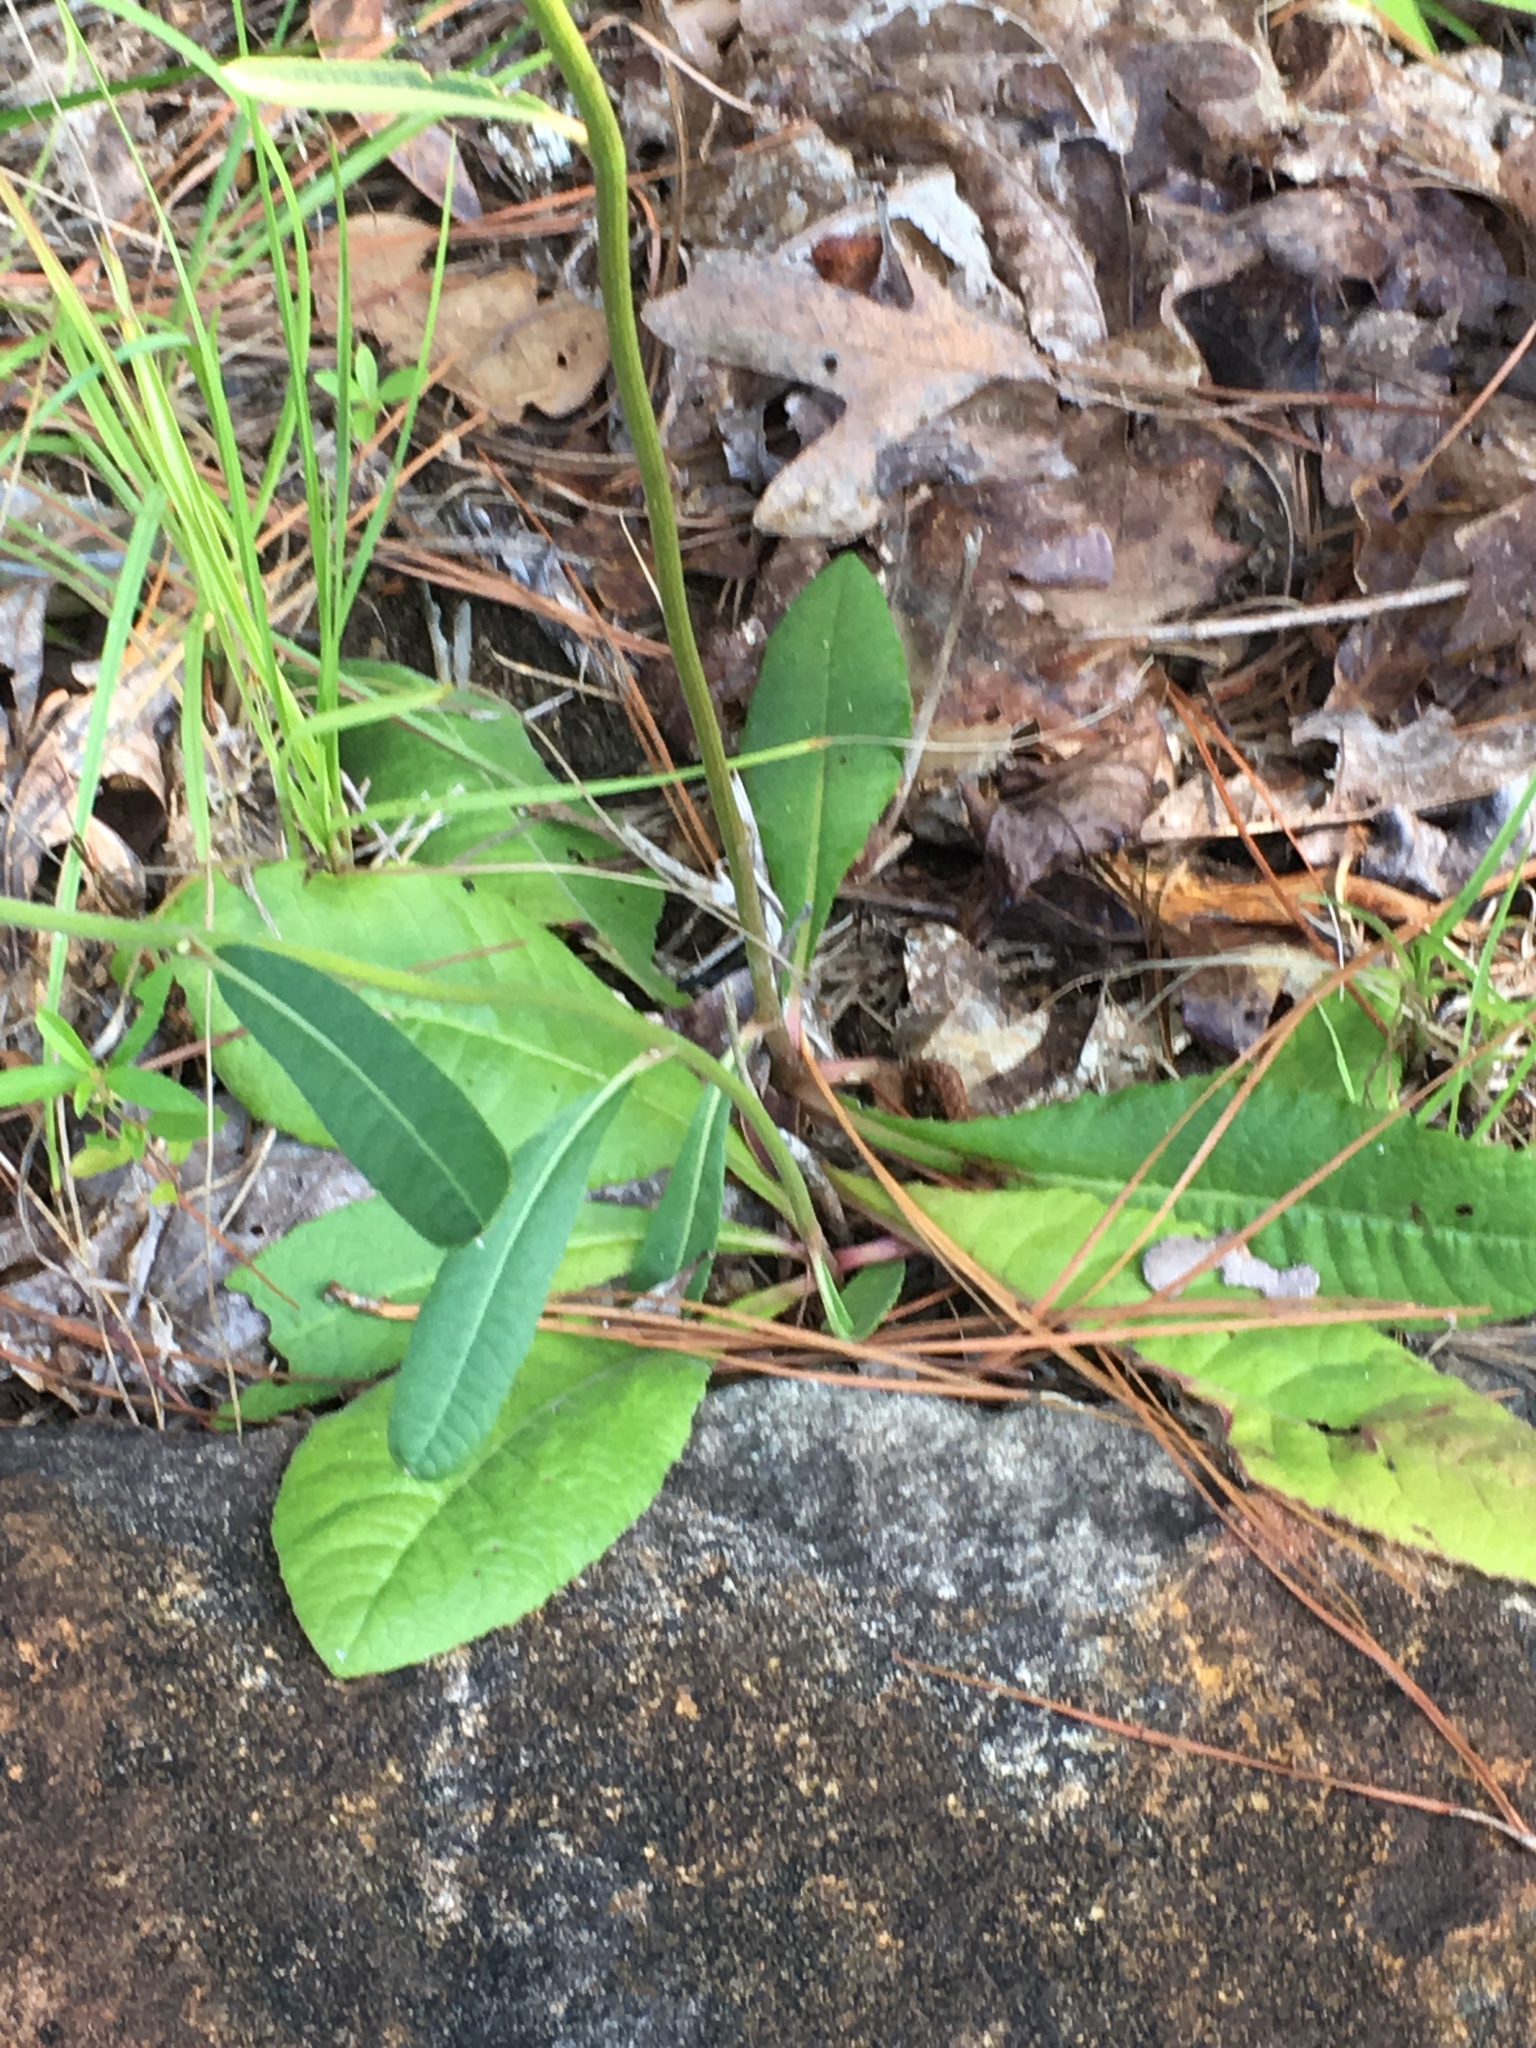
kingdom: Plantae
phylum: Tracheophyta
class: Magnoliopsida
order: Asterales
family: Asteraceae
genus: Vernonia
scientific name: Vernonia acaulis
